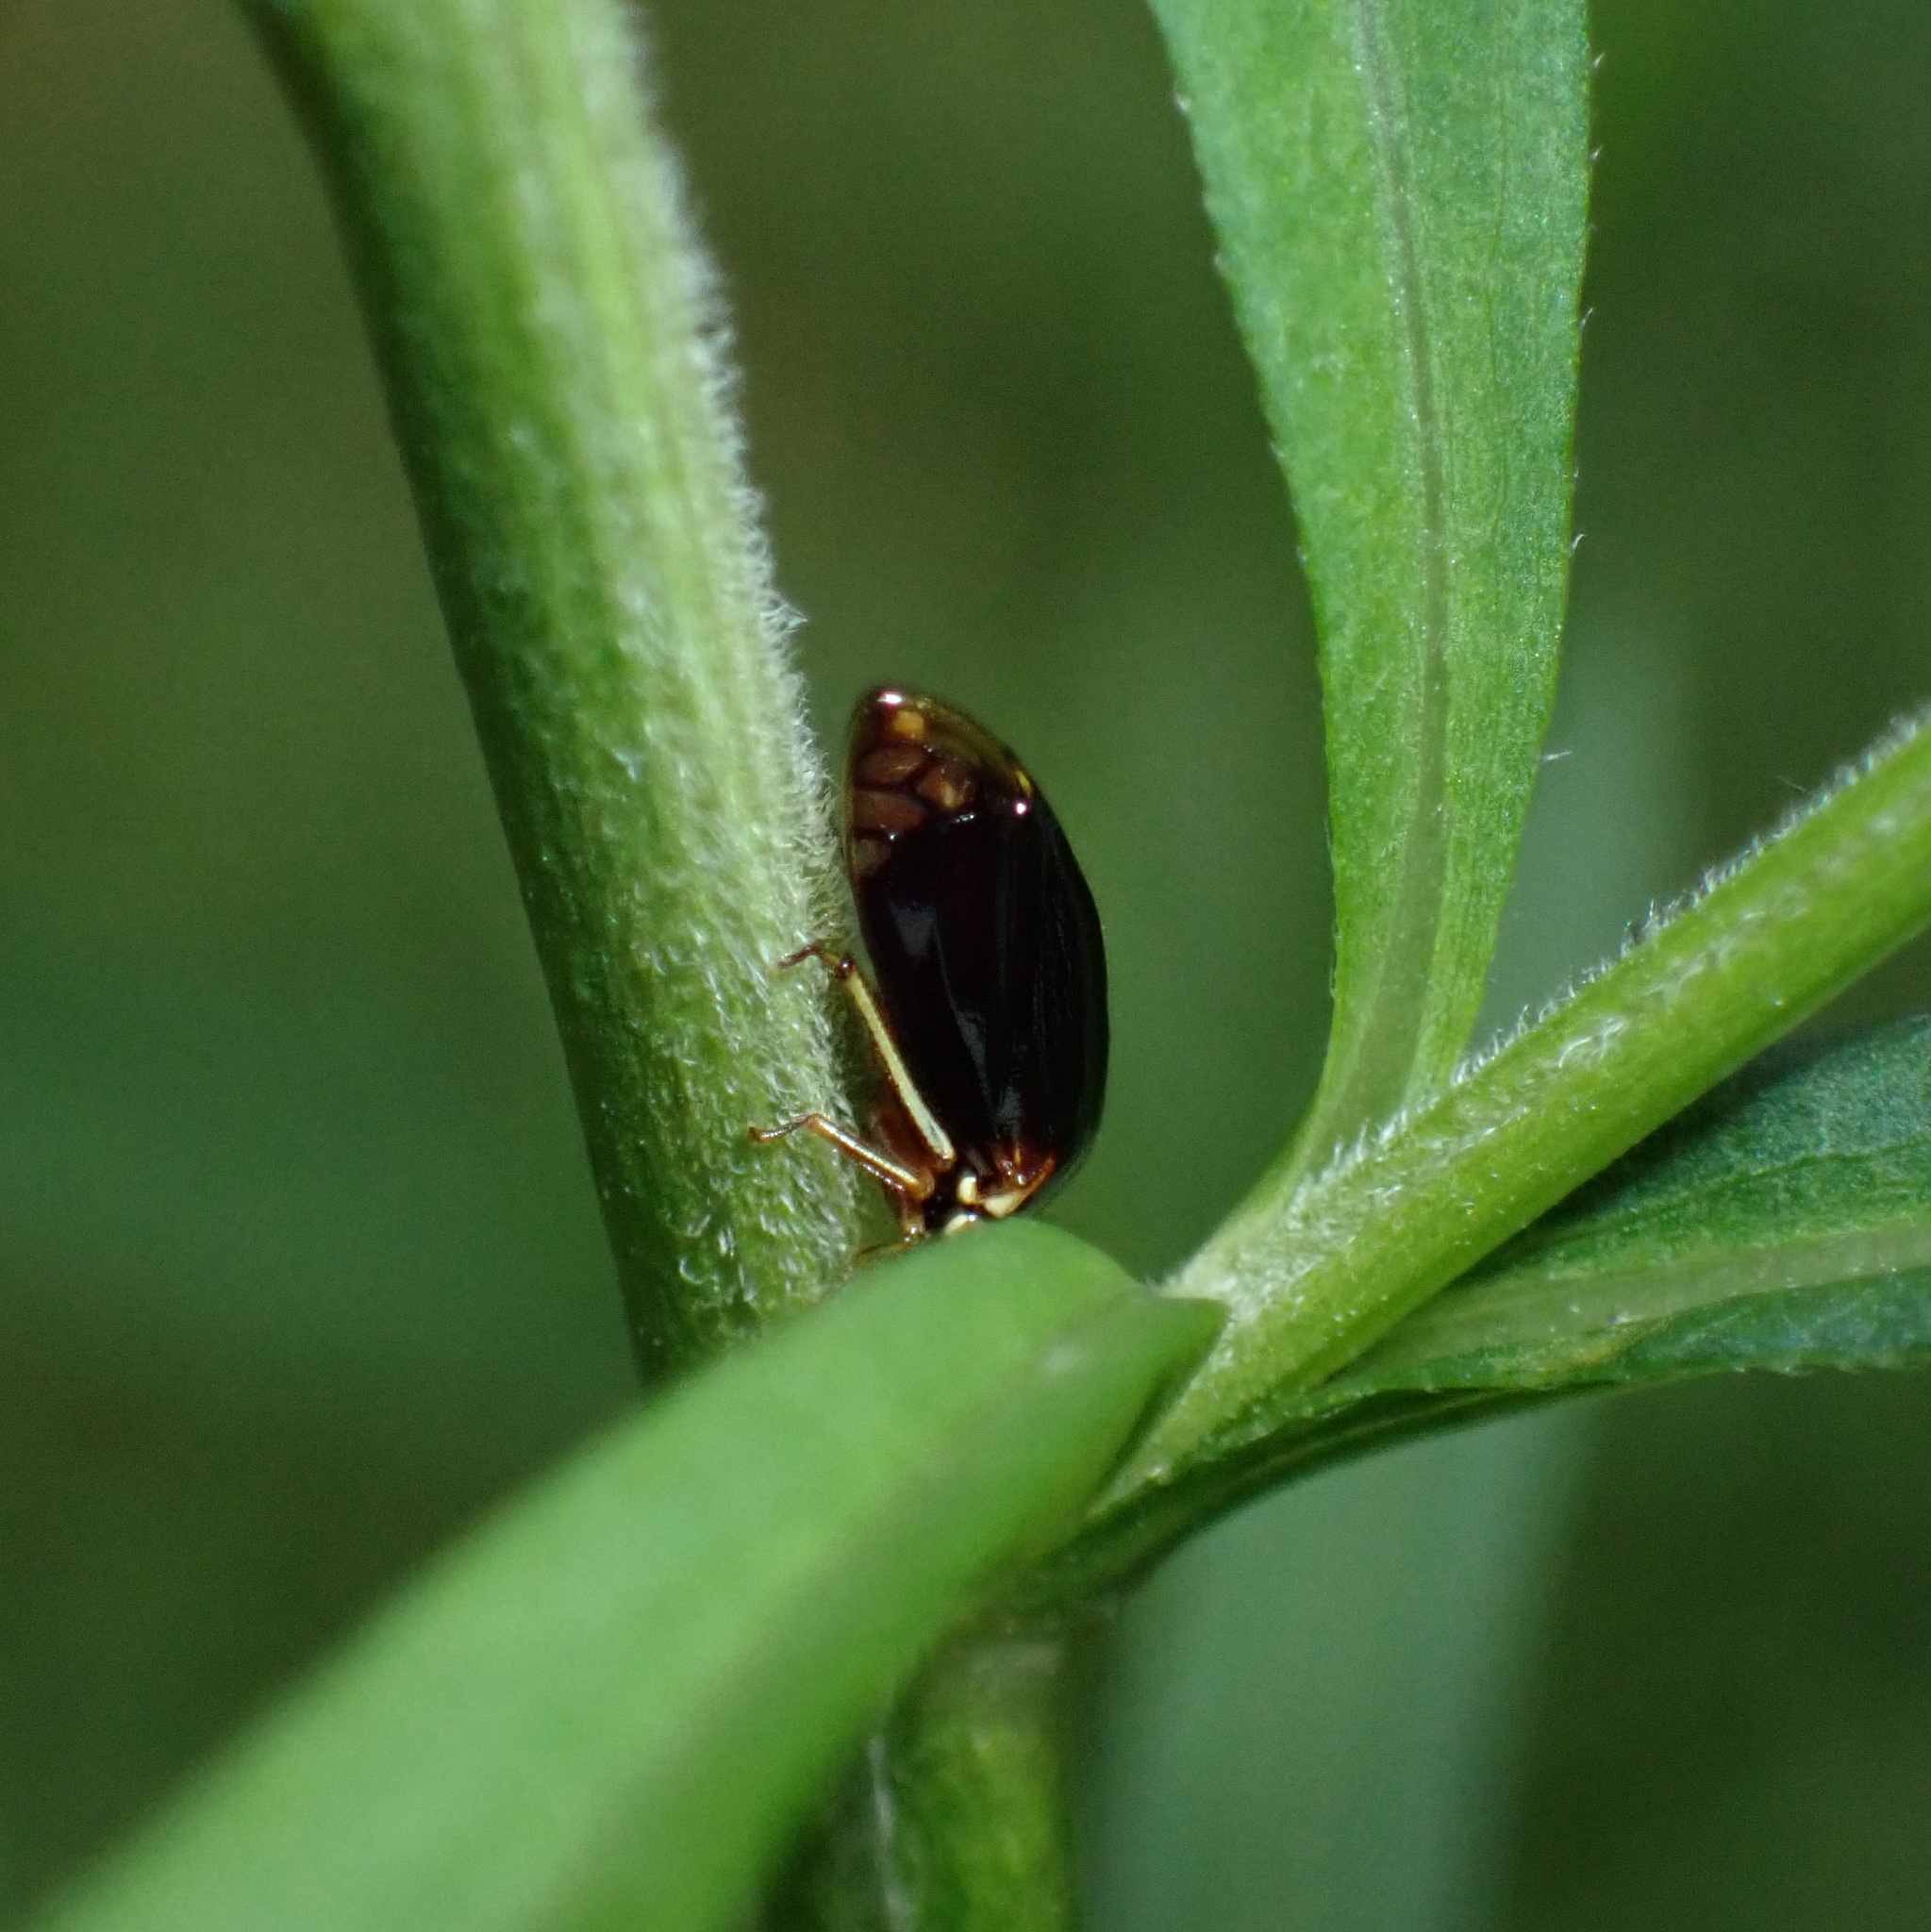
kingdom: Animalia
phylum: Arthropoda
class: Insecta
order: Hemiptera
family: Membracidae
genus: Acutalis
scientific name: Acutalis tartarea
